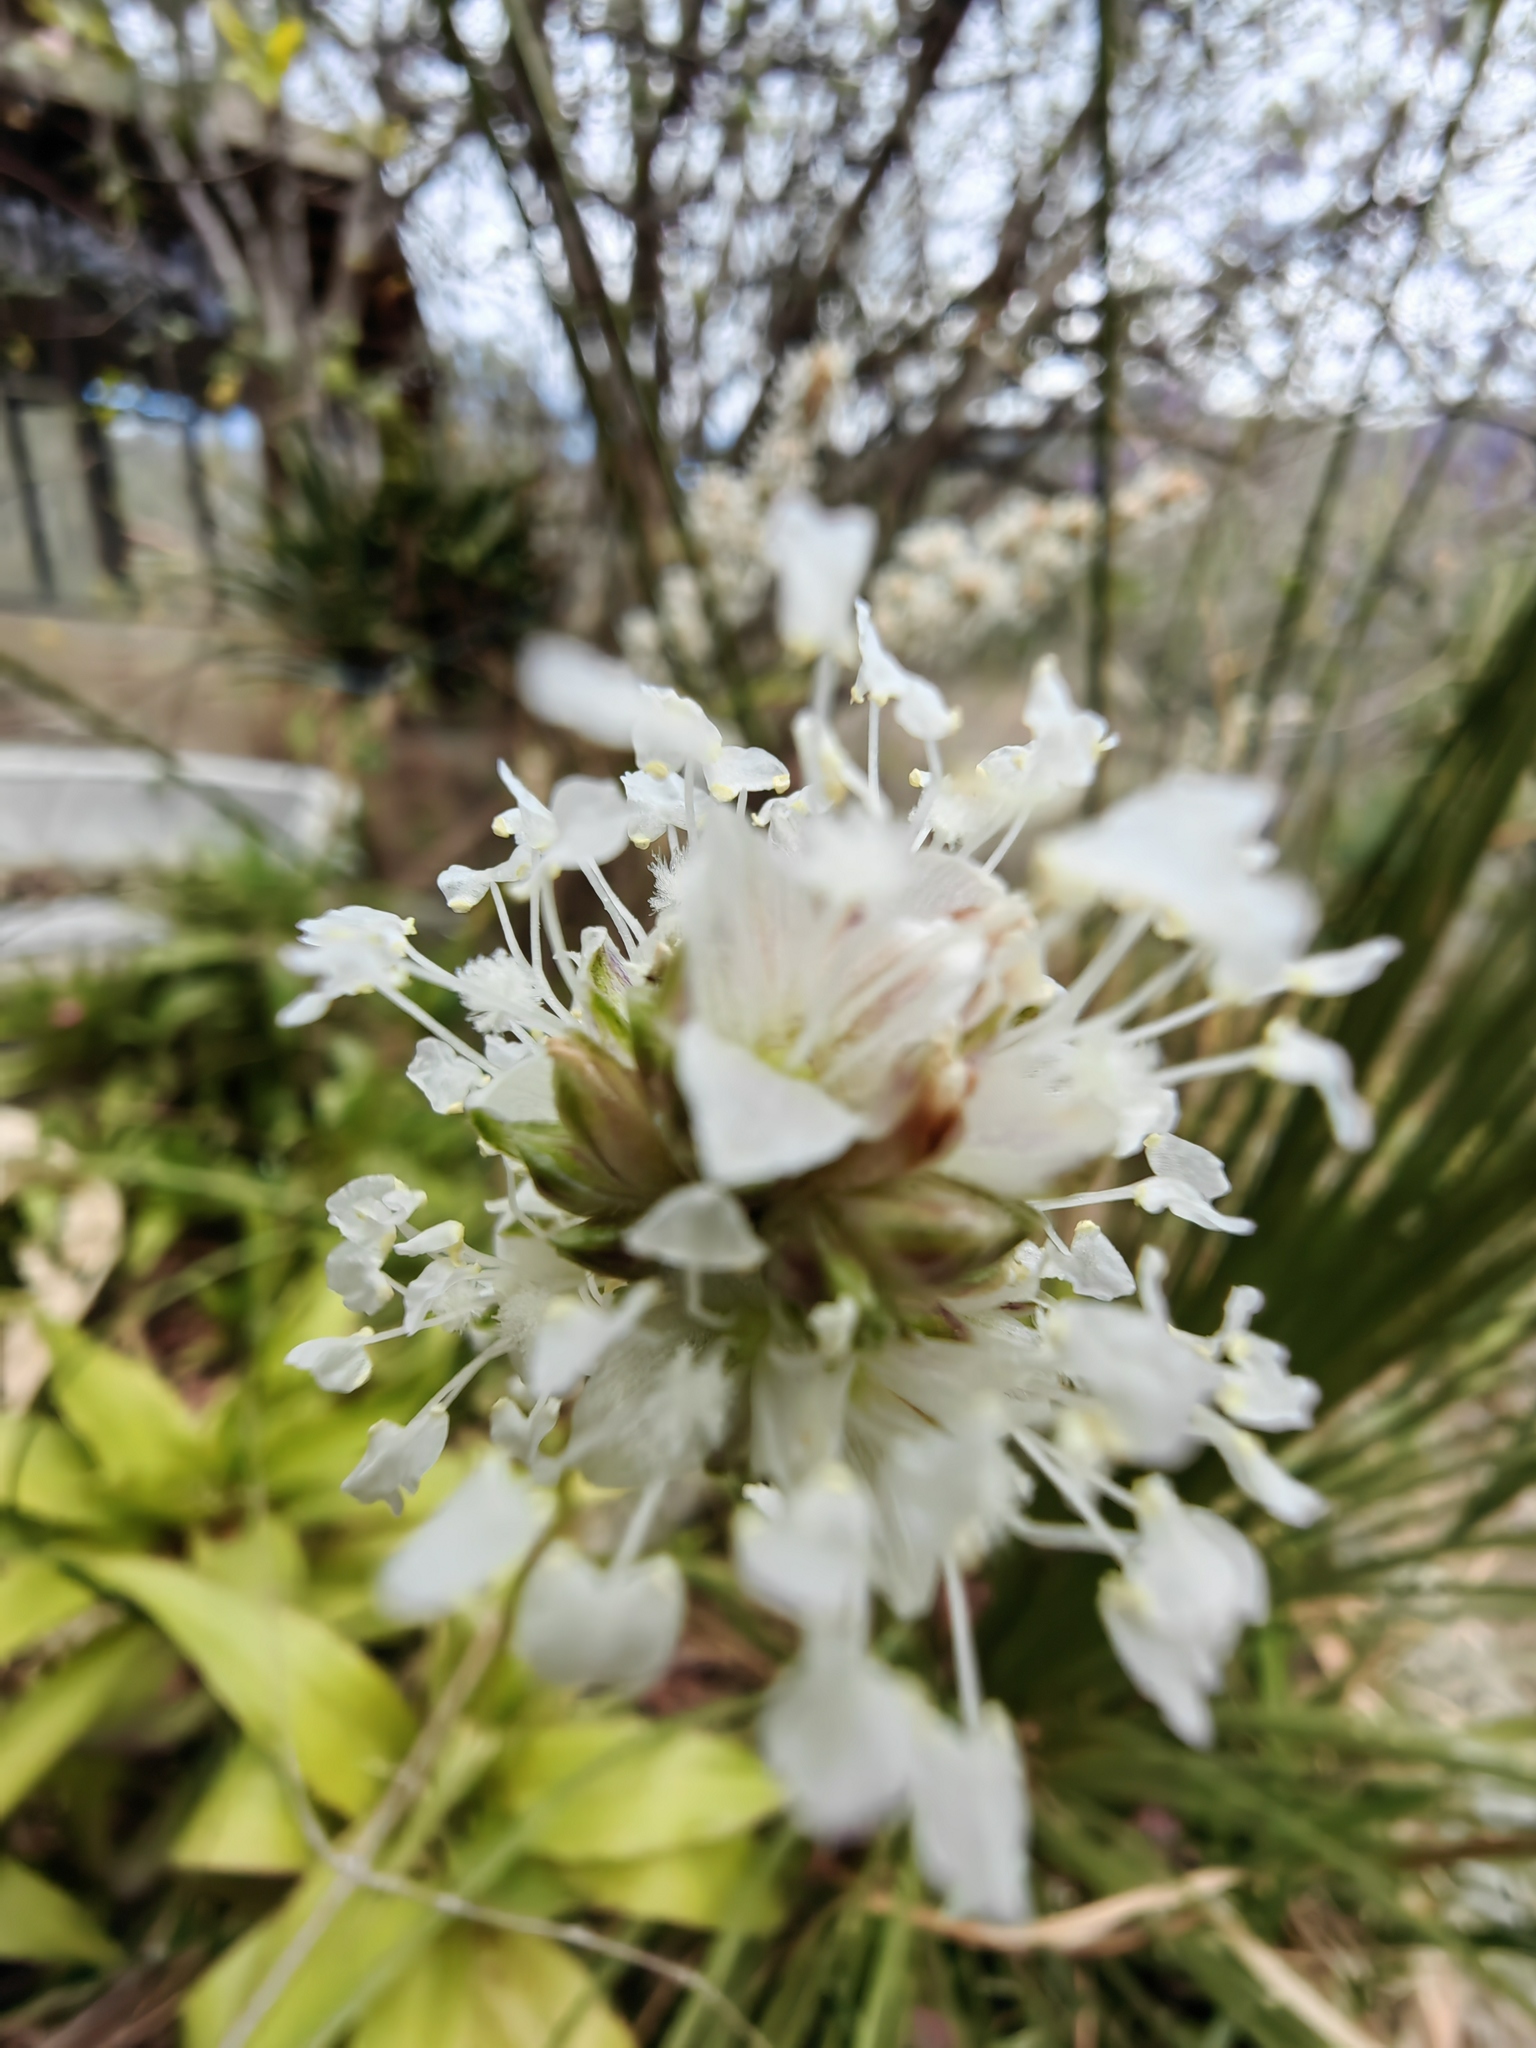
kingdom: Plantae
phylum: Tracheophyta
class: Liliopsida
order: Commelinales
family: Commelinaceae
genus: Callisia
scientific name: Callisia fragrans
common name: Basketplant
